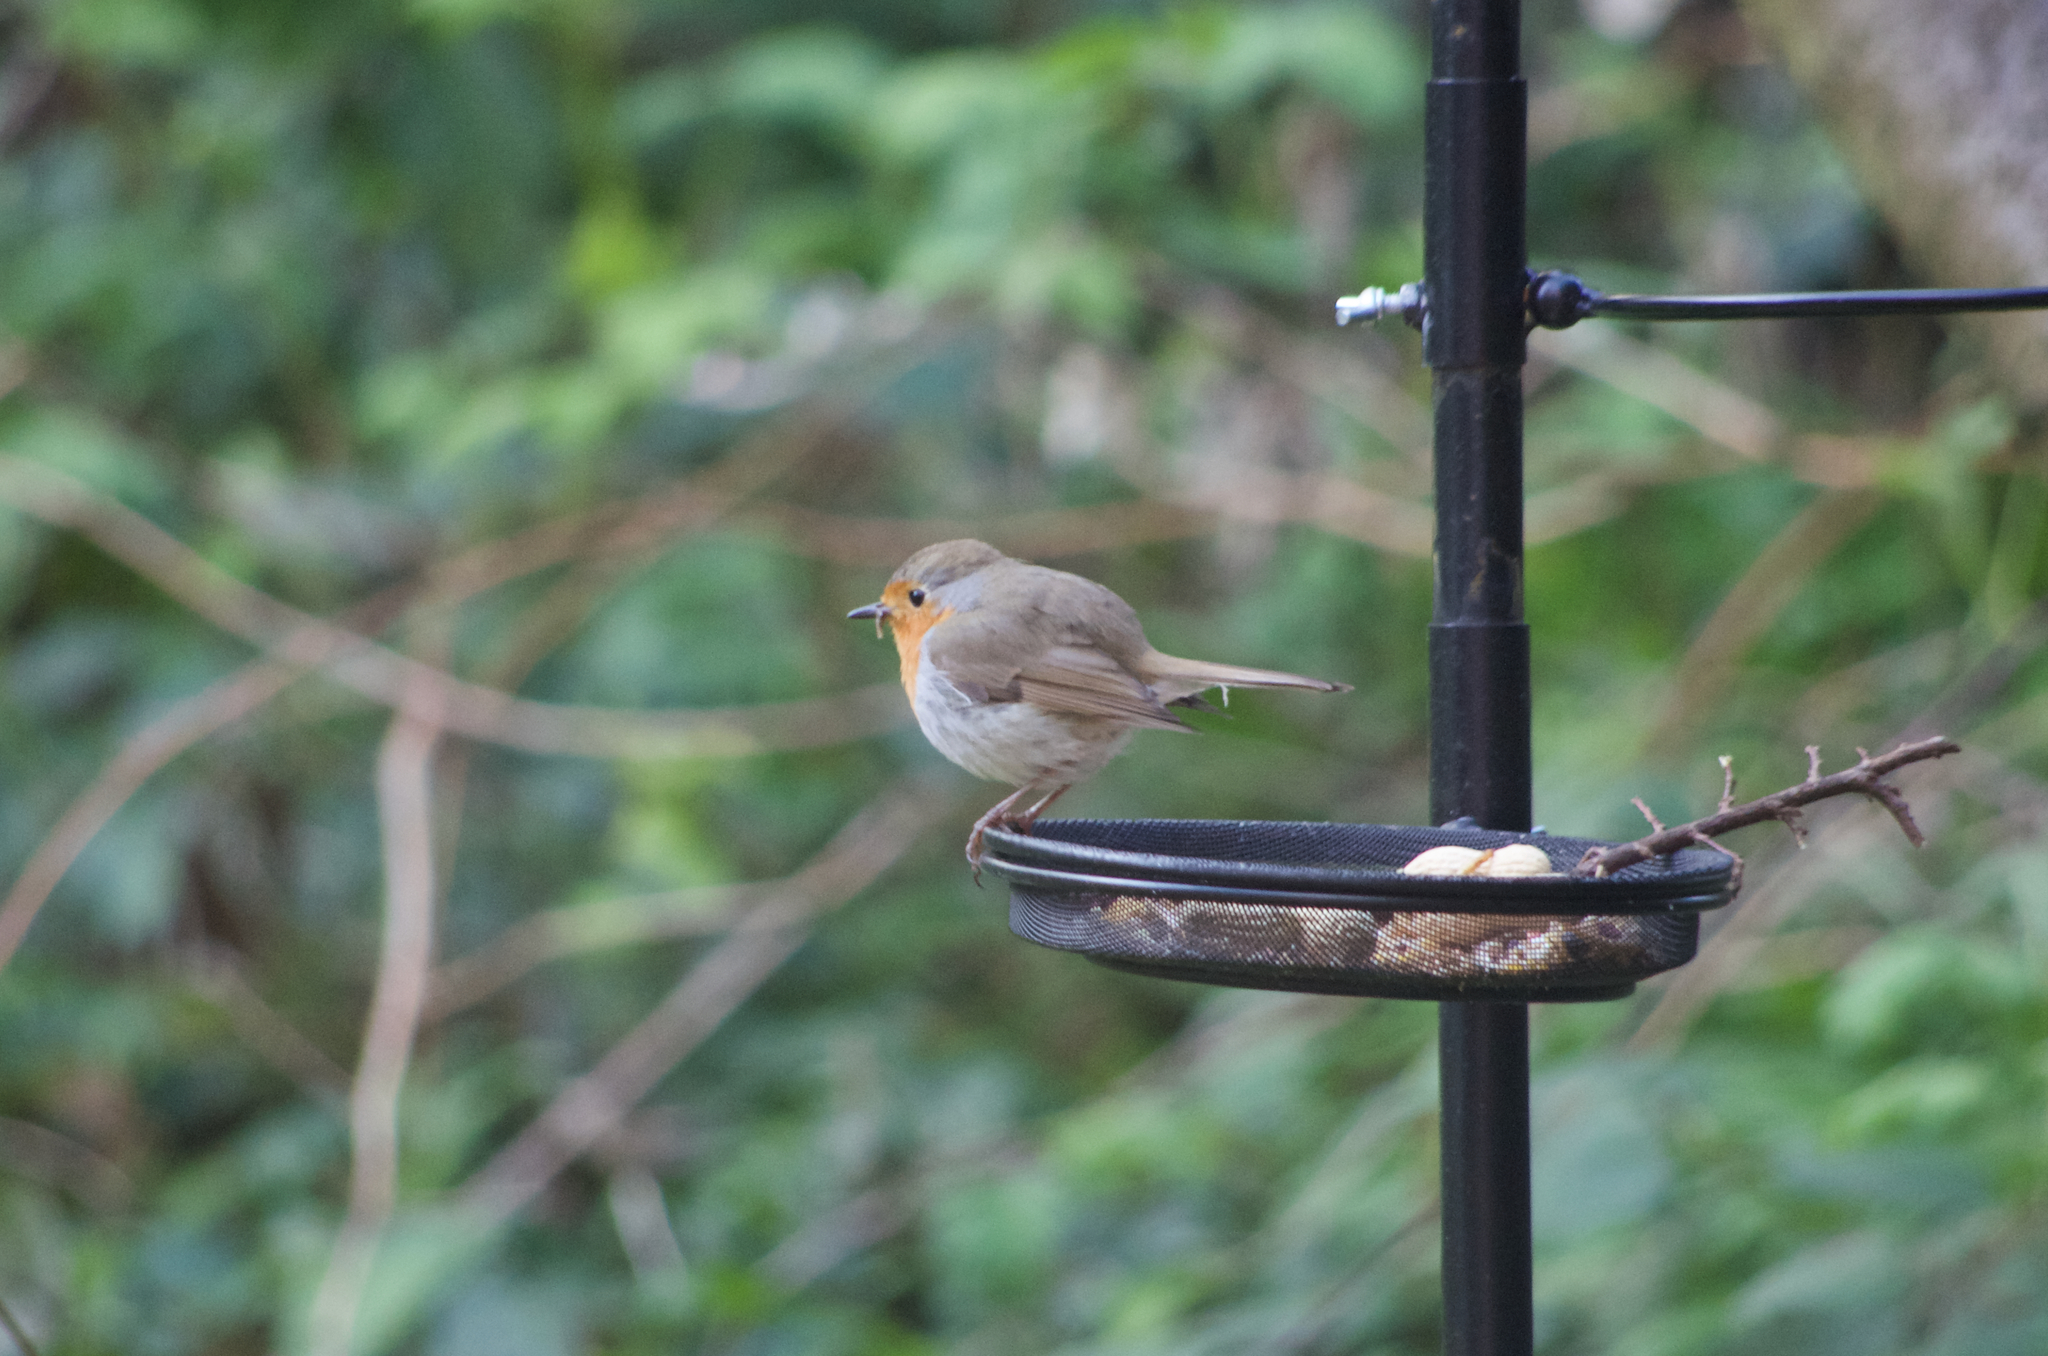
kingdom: Animalia
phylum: Chordata
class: Aves
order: Passeriformes
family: Muscicapidae
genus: Erithacus
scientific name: Erithacus rubecula
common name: European robin
